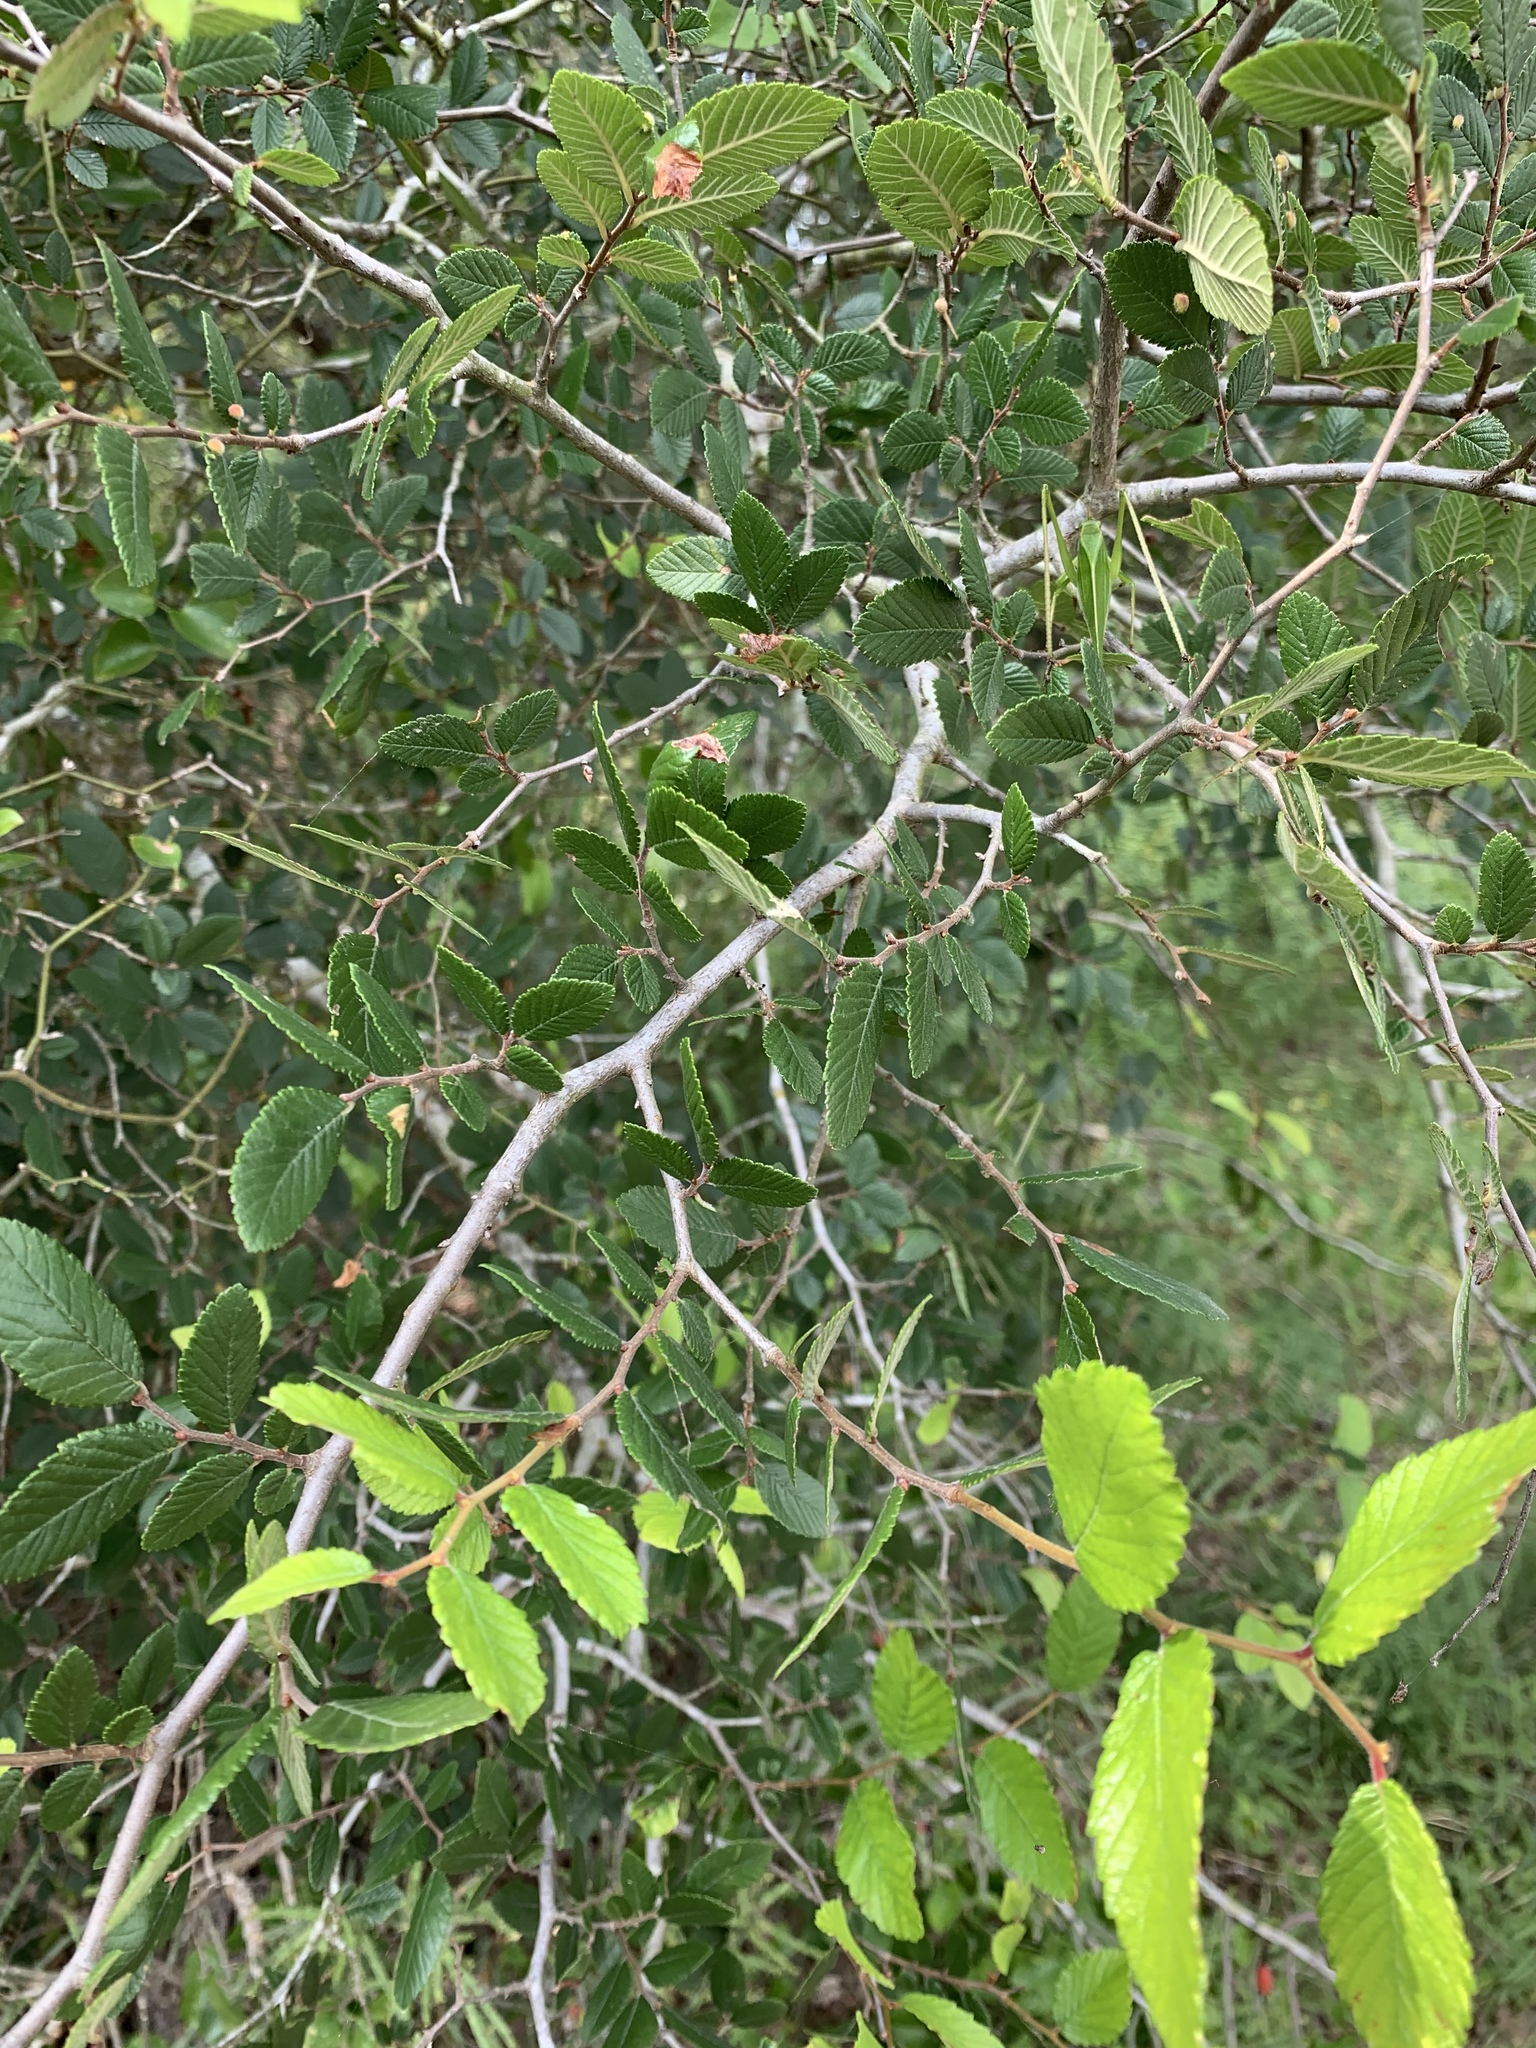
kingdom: Plantae
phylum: Tracheophyta
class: Magnoliopsida
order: Rosales
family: Ulmaceae
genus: Ulmus
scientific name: Ulmus crassifolia
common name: Basket elm
